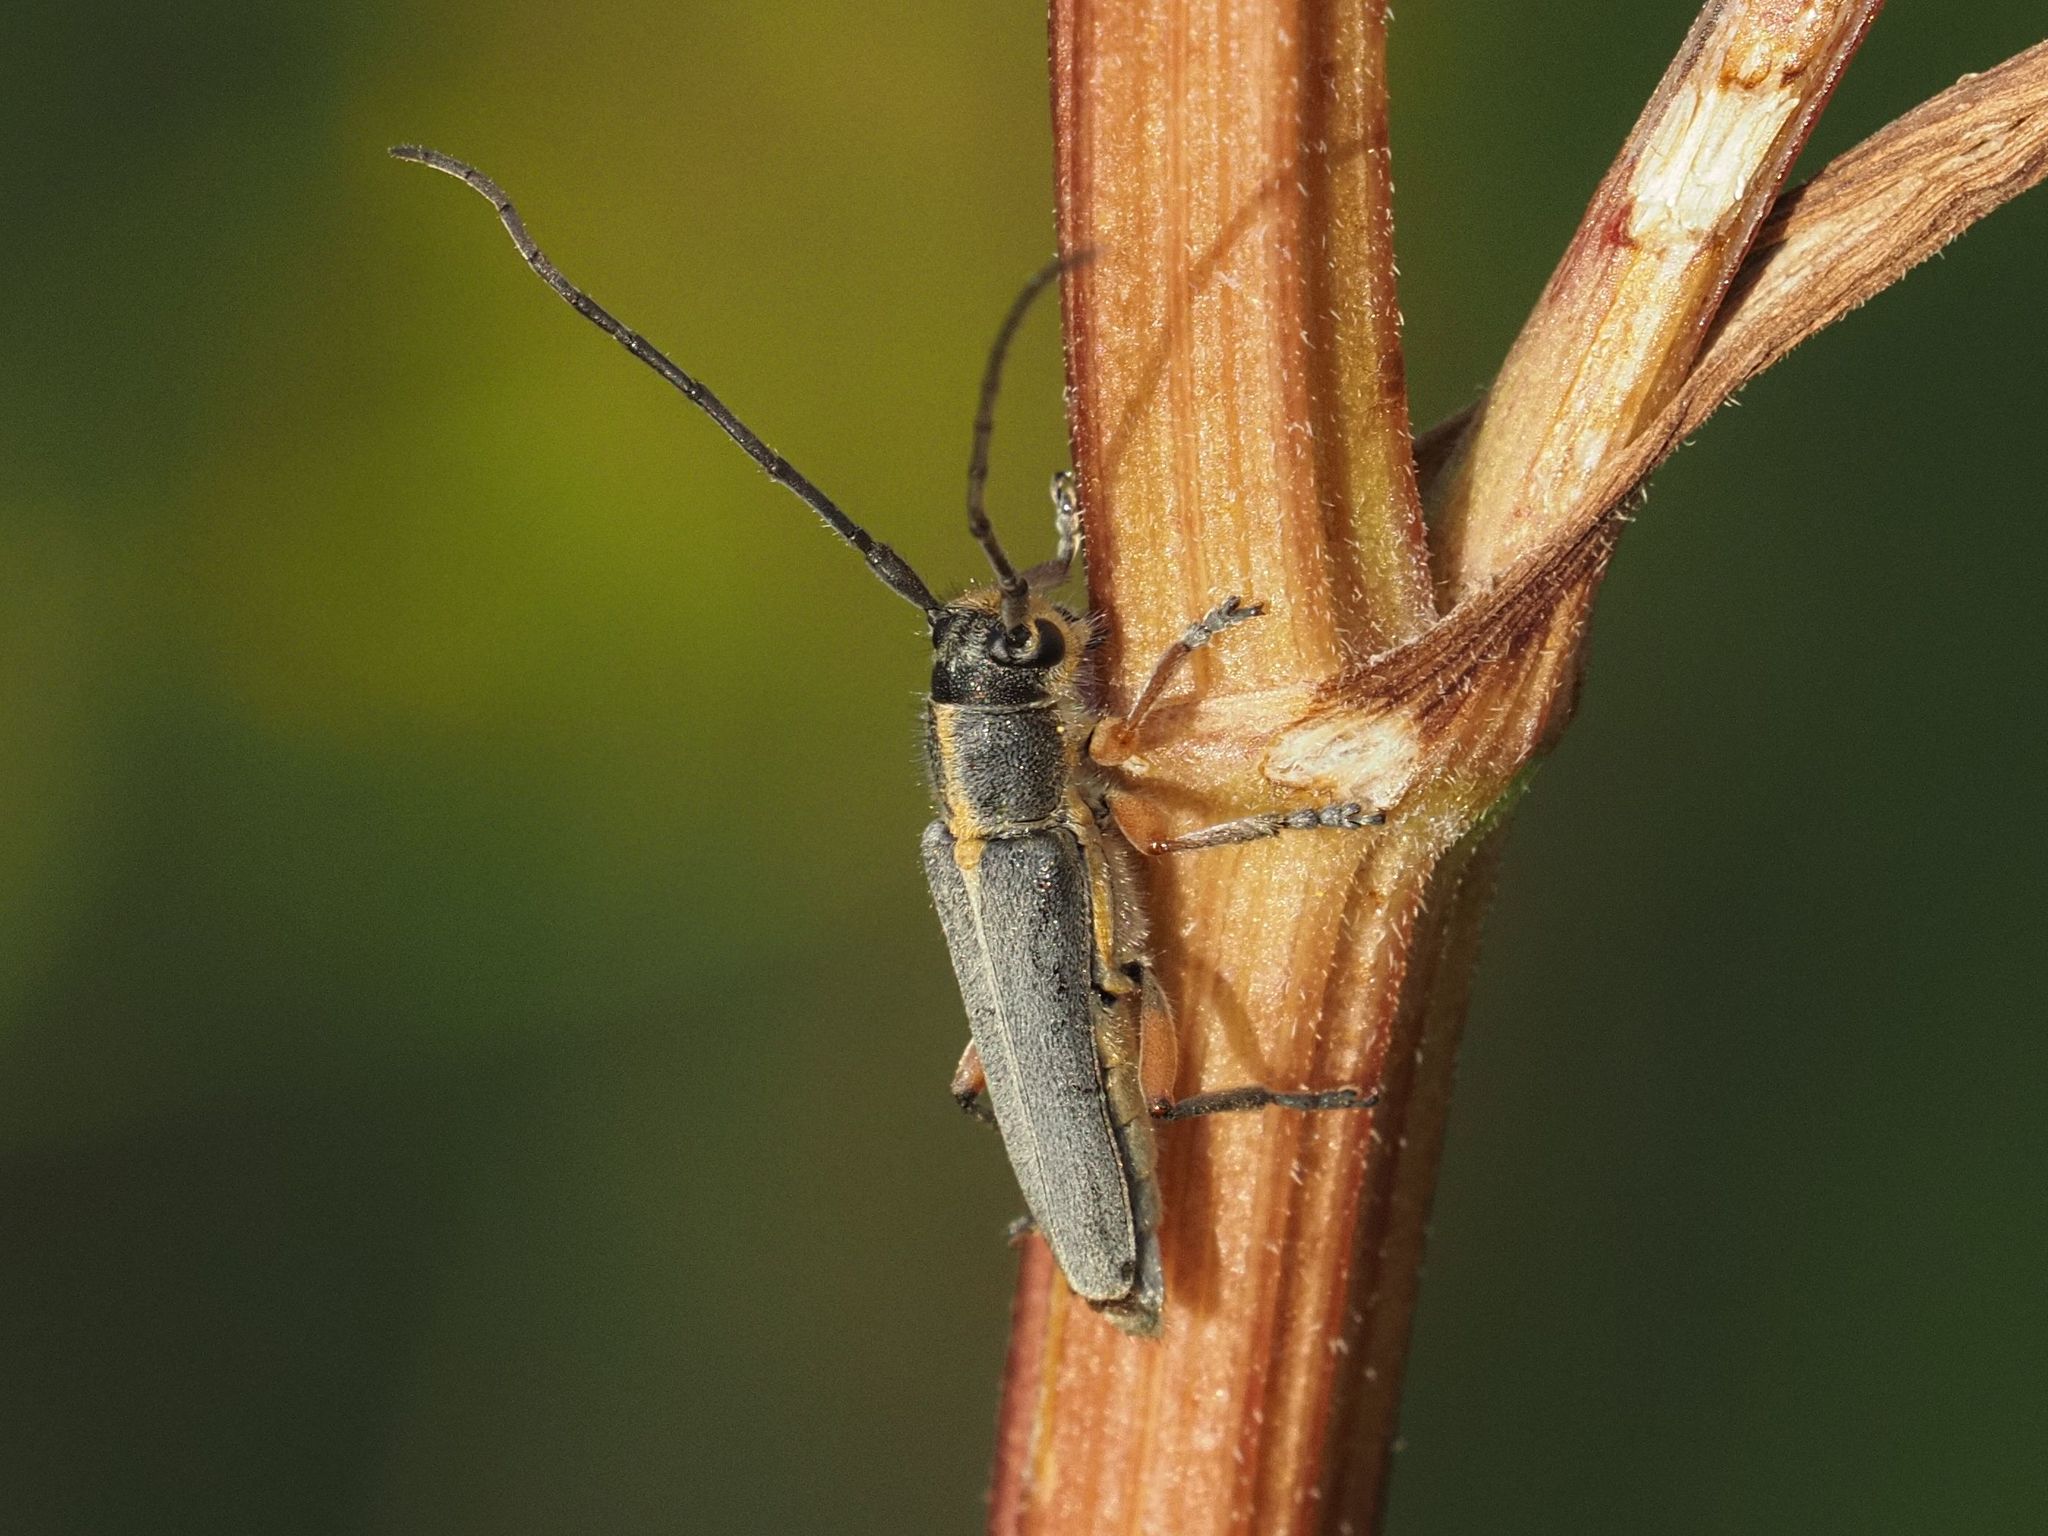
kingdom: Animalia
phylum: Arthropoda
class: Insecta
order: Coleoptera
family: Cerambycidae
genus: Phytoecia
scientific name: Phytoecia icterica
